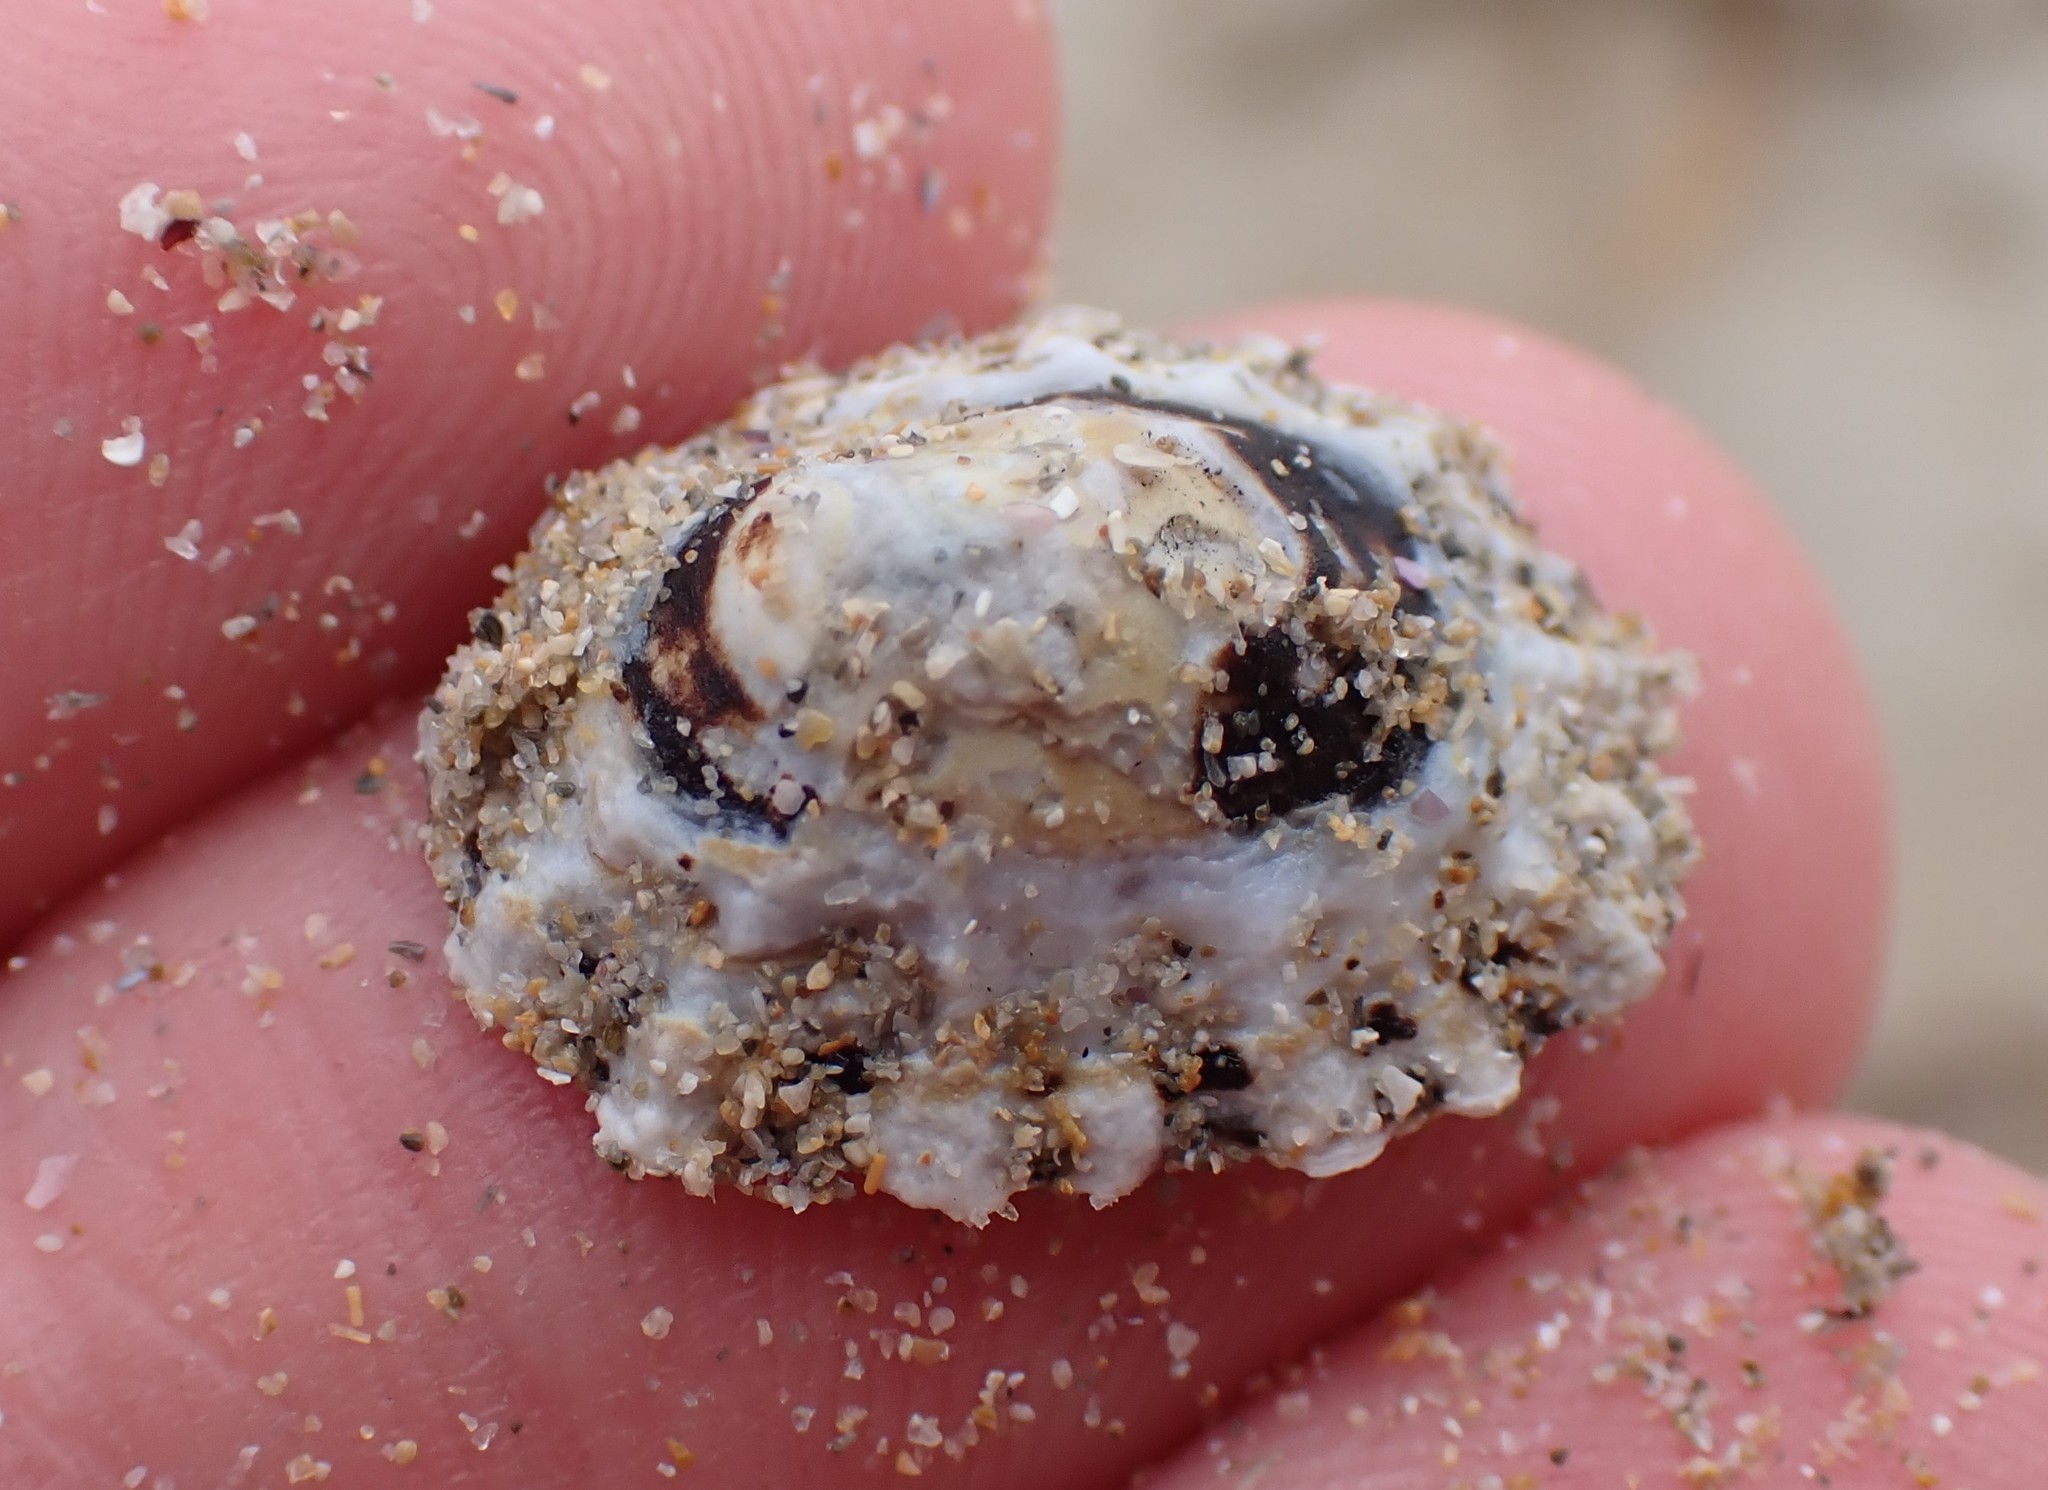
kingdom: Animalia
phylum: Mollusca
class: Gastropoda
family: Lottiidae
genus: Patelloida
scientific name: Patelloida alticostata
